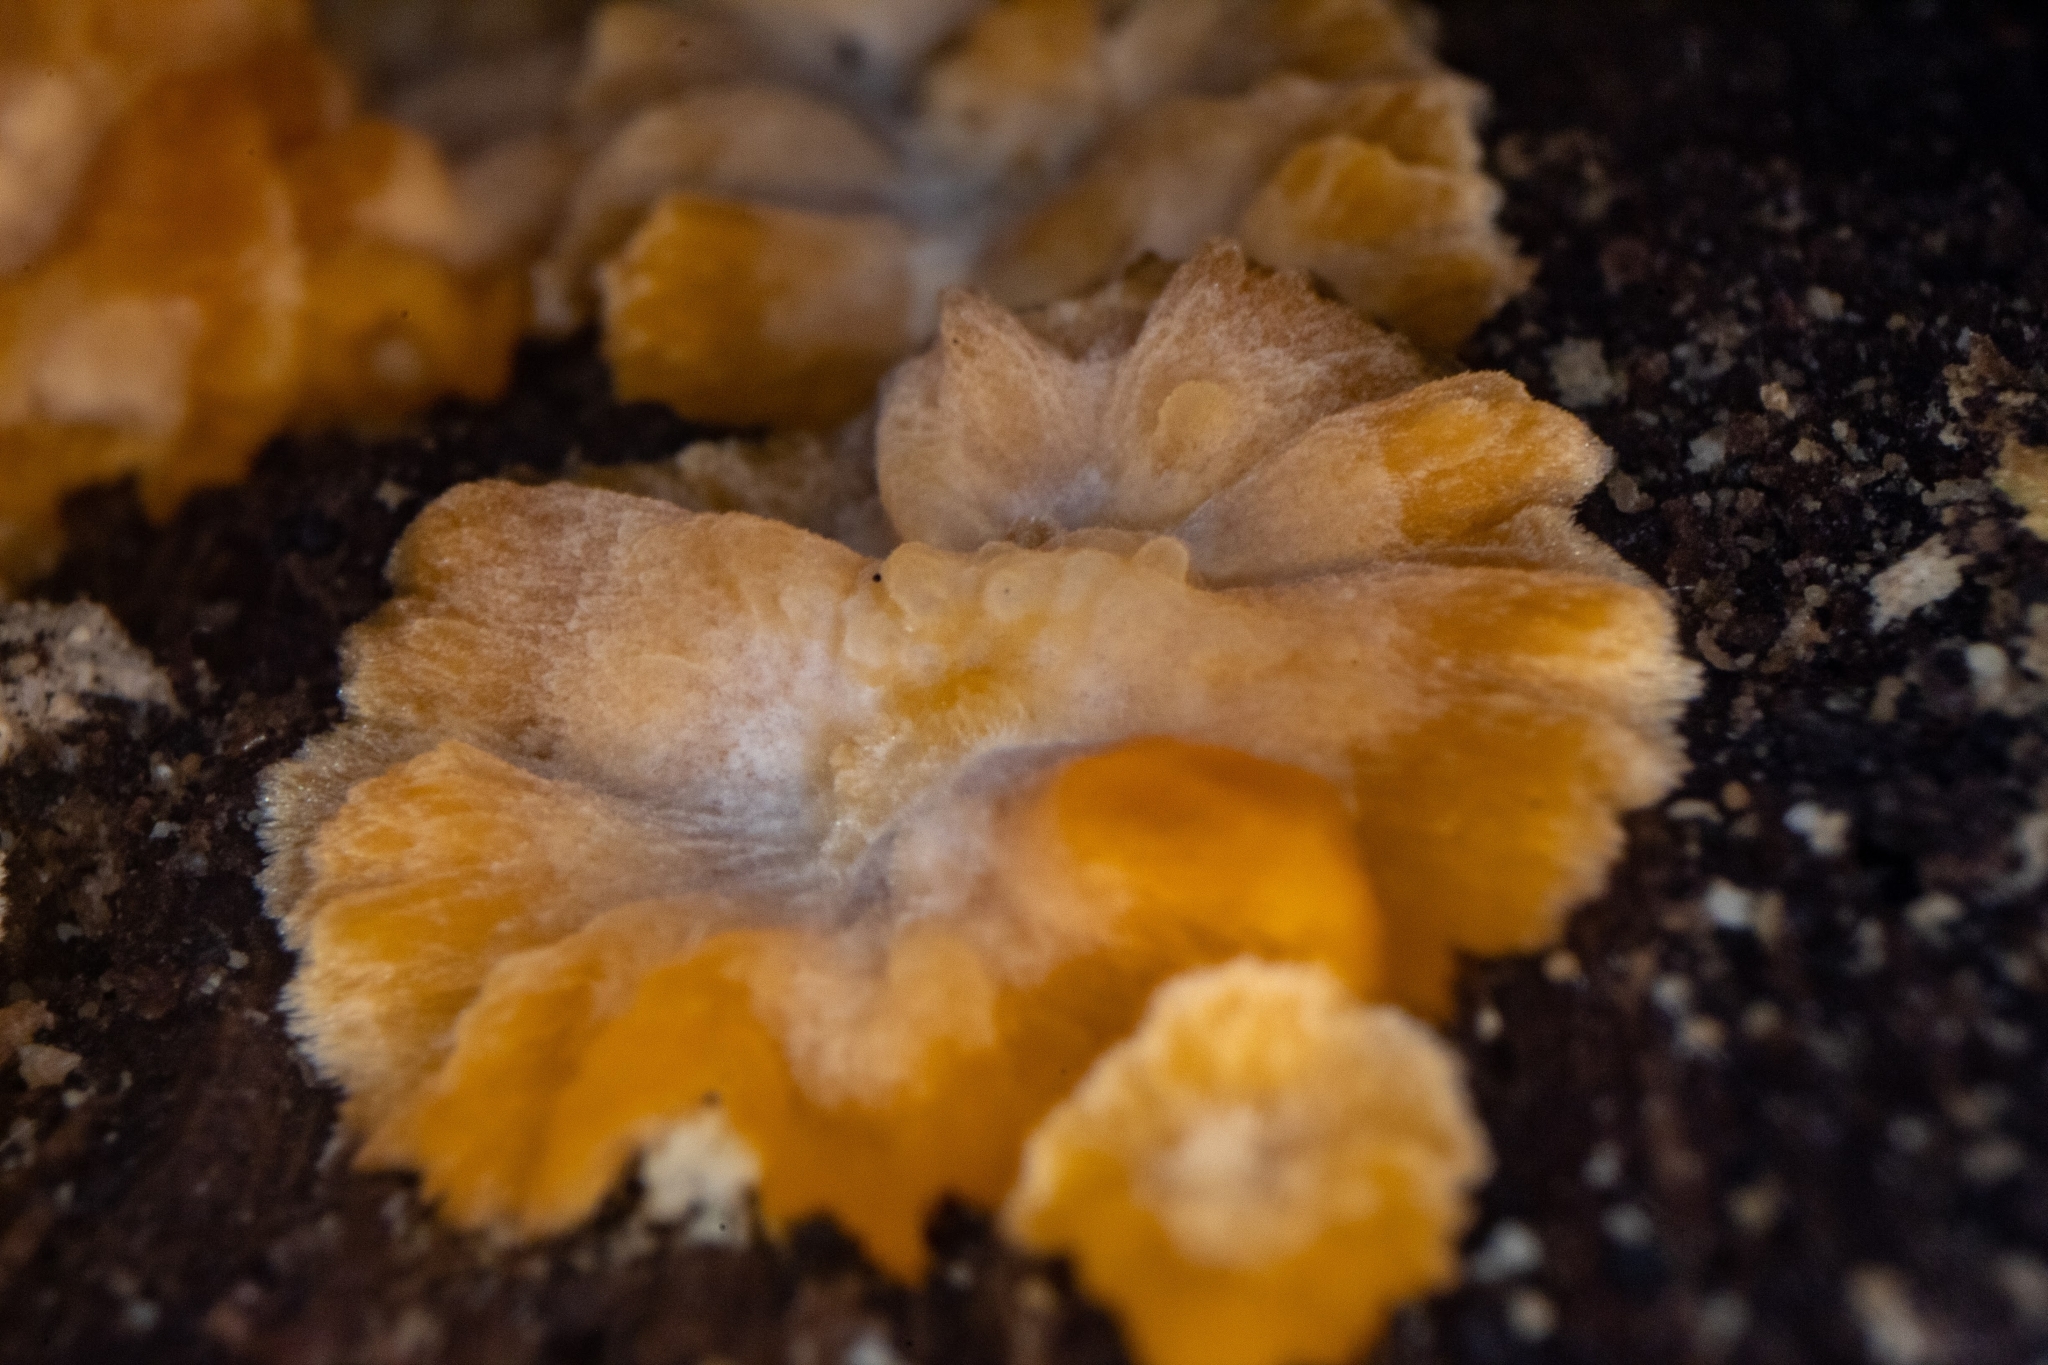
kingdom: Fungi
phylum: Basidiomycota
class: Agaricomycetes
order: Polyporales
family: Meruliaceae
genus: Phlebia
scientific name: Phlebia radiata
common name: Wrinkled crust
